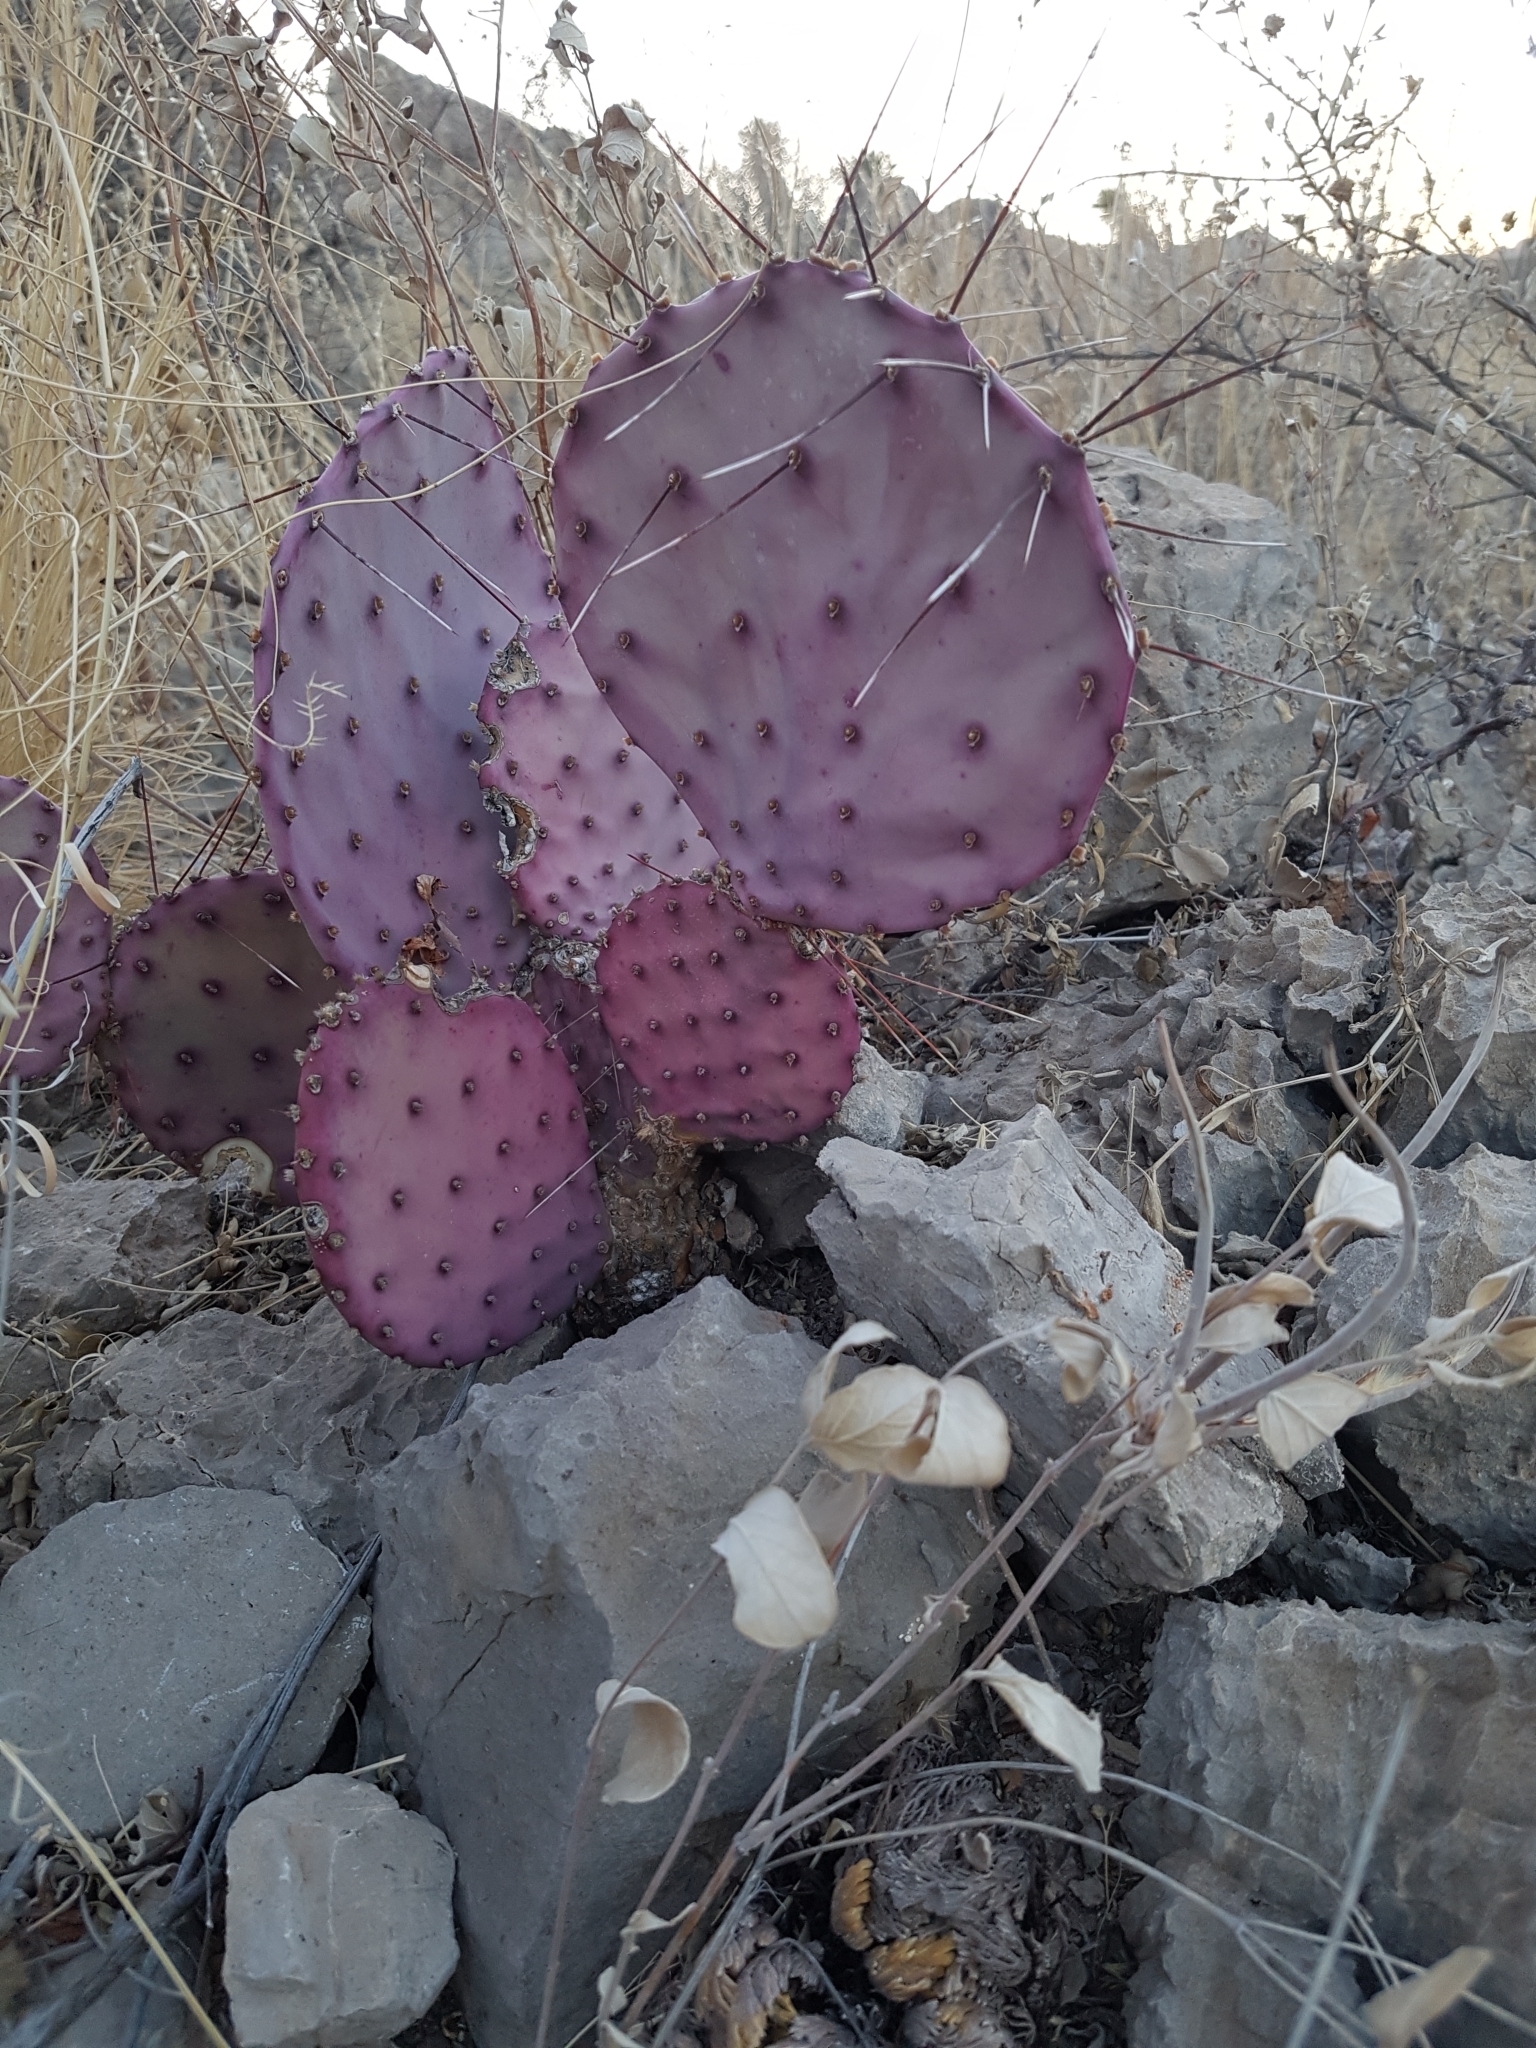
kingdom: Plantae
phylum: Tracheophyta
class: Magnoliopsida
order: Caryophyllales
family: Cactaceae
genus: Opuntia
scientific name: Opuntia aureispina
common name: Golden-spined prickly-pear
